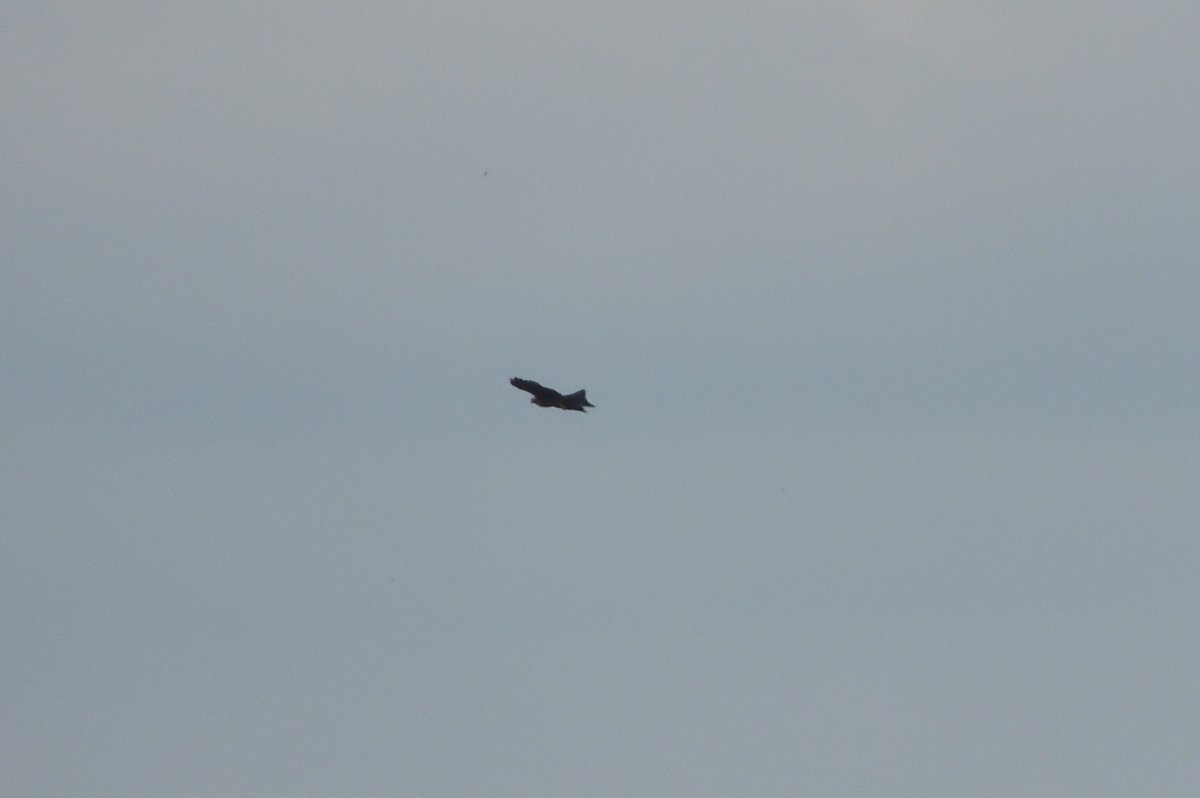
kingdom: Animalia
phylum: Chordata
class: Aves
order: Accipitriformes
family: Accipitridae
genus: Milvus
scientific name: Milvus migrans
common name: Black kite
